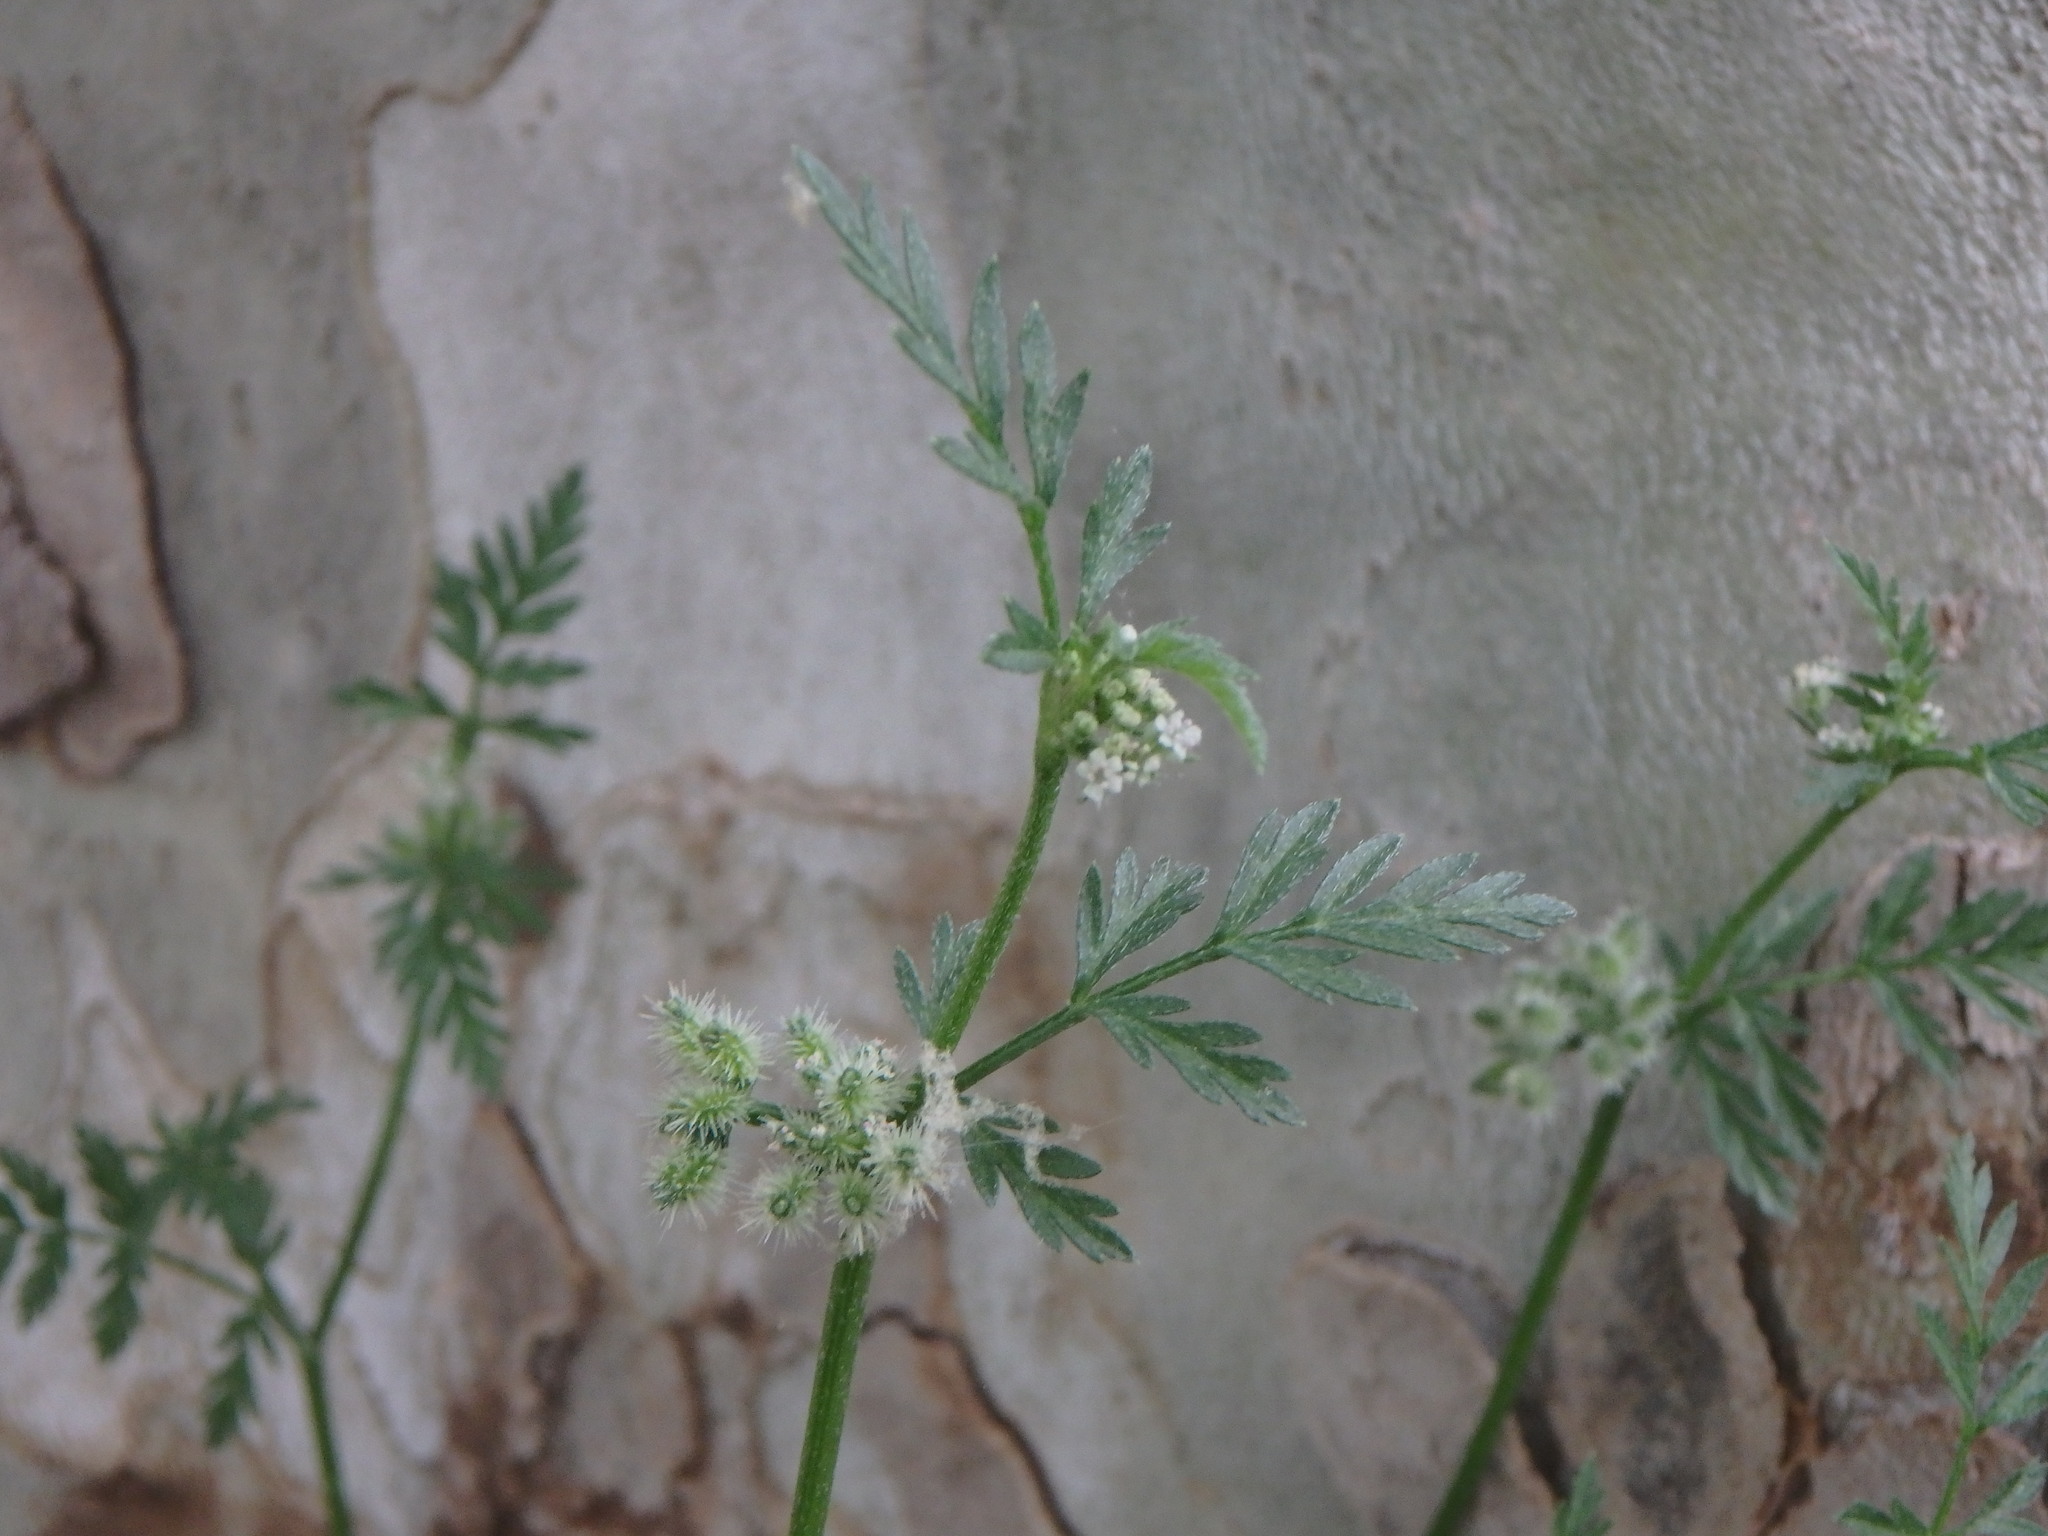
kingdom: Plantae
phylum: Tracheophyta
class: Magnoliopsida
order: Apiales
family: Apiaceae
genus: Torilis
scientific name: Torilis nodosa
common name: Knotted hedge-parsley
